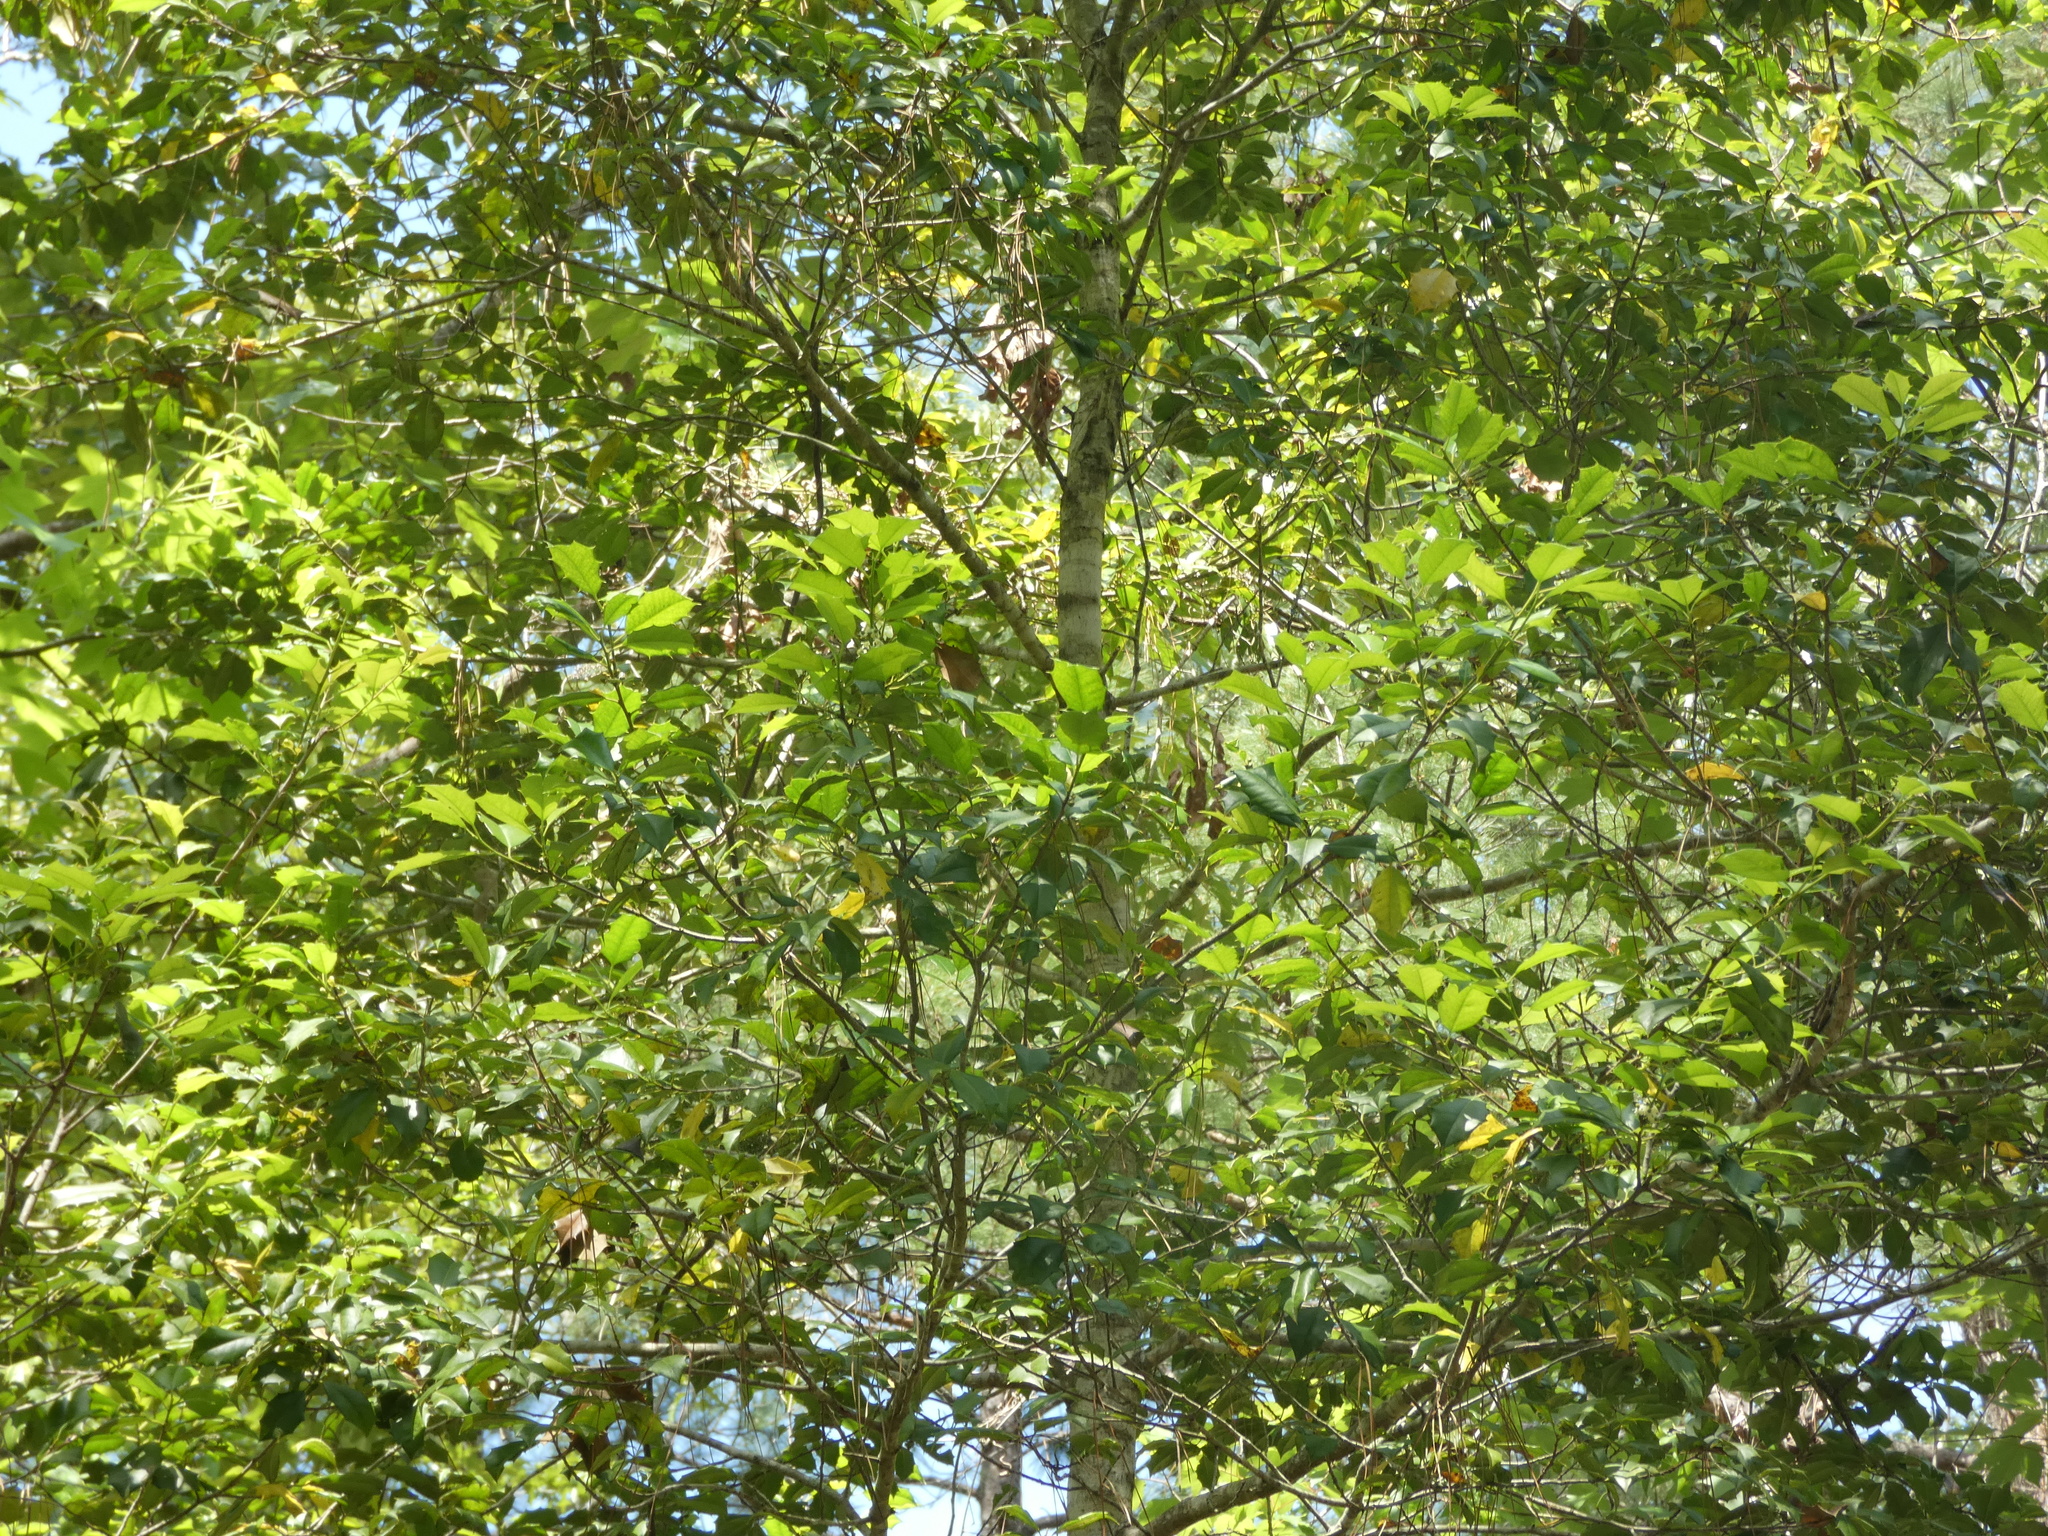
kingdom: Plantae
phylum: Tracheophyta
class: Magnoliopsida
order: Aquifoliales
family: Aquifoliaceae
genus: Ilex
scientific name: Ilex opaca
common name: American holly
